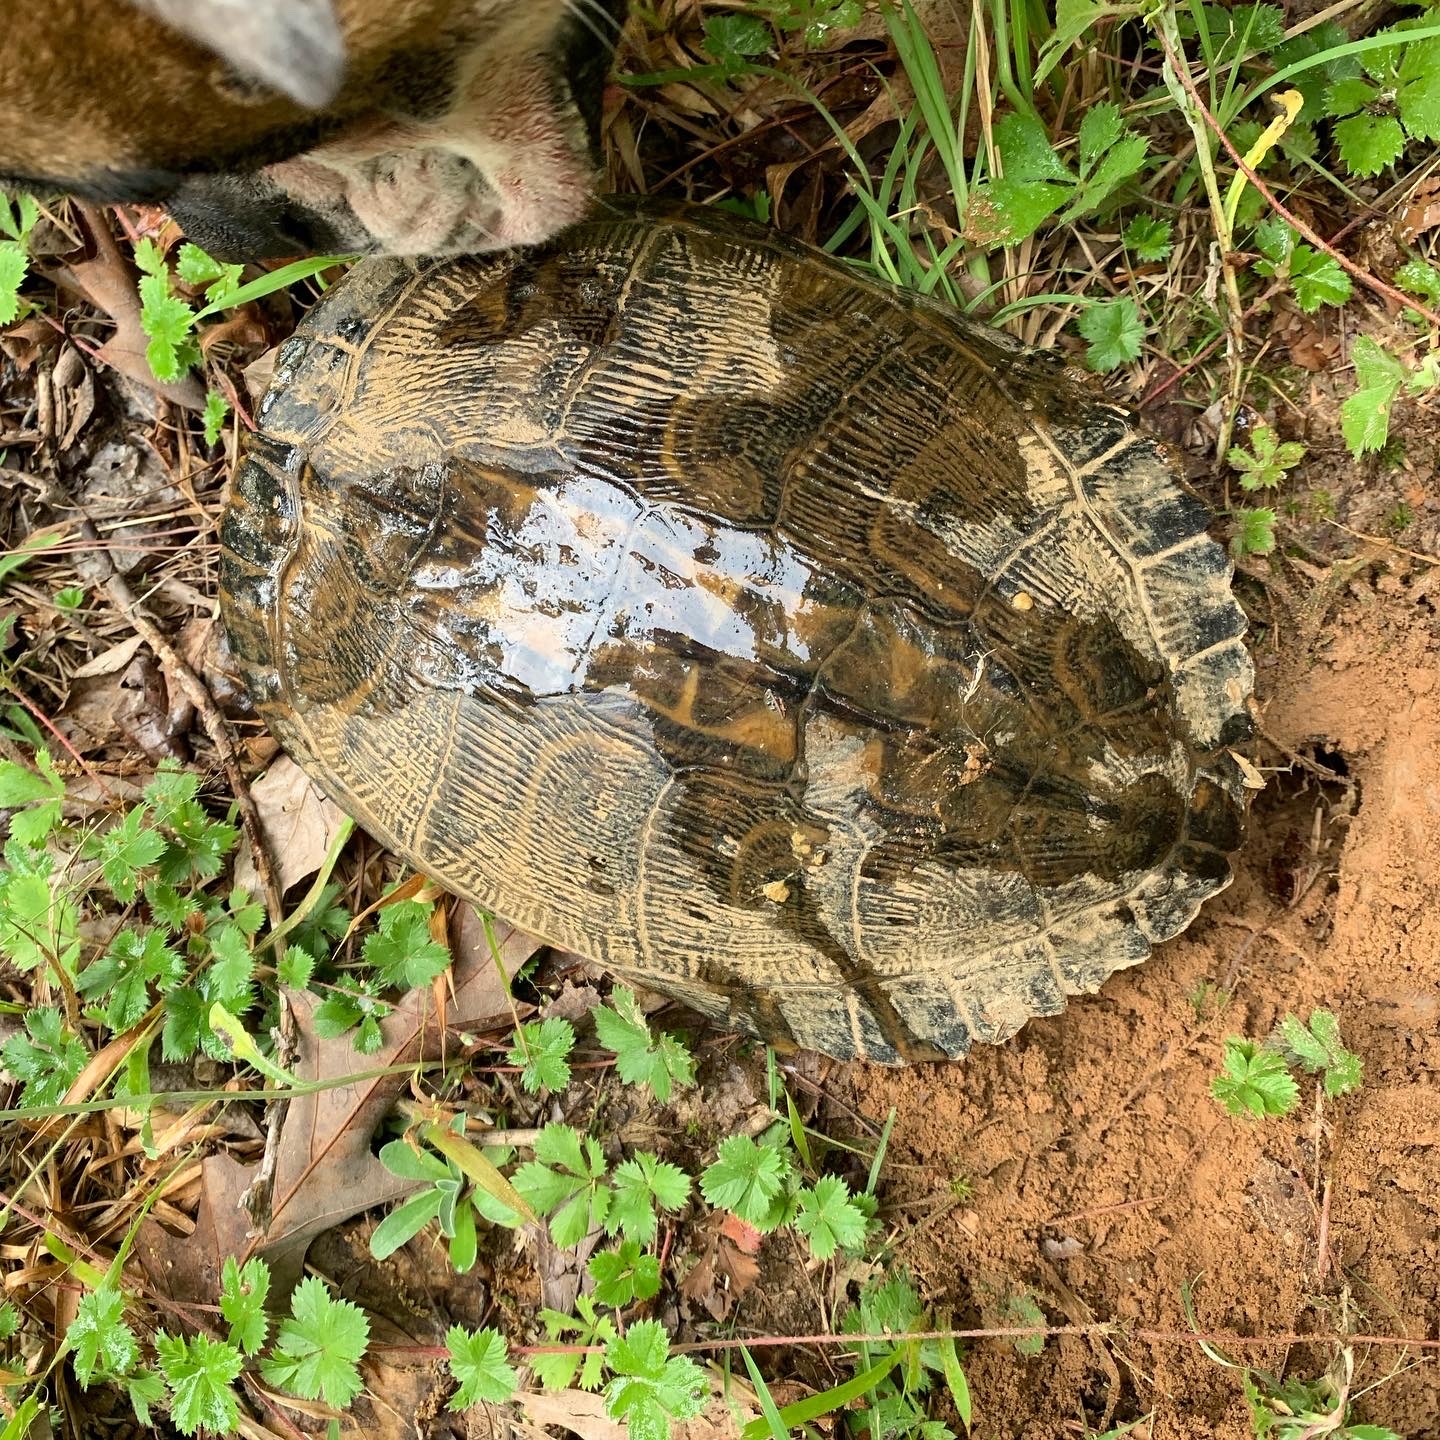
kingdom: Animalia
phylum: Chordata
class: Testudines
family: Emydidae
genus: Trachemys
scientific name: Trachemys scripta
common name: Slider
